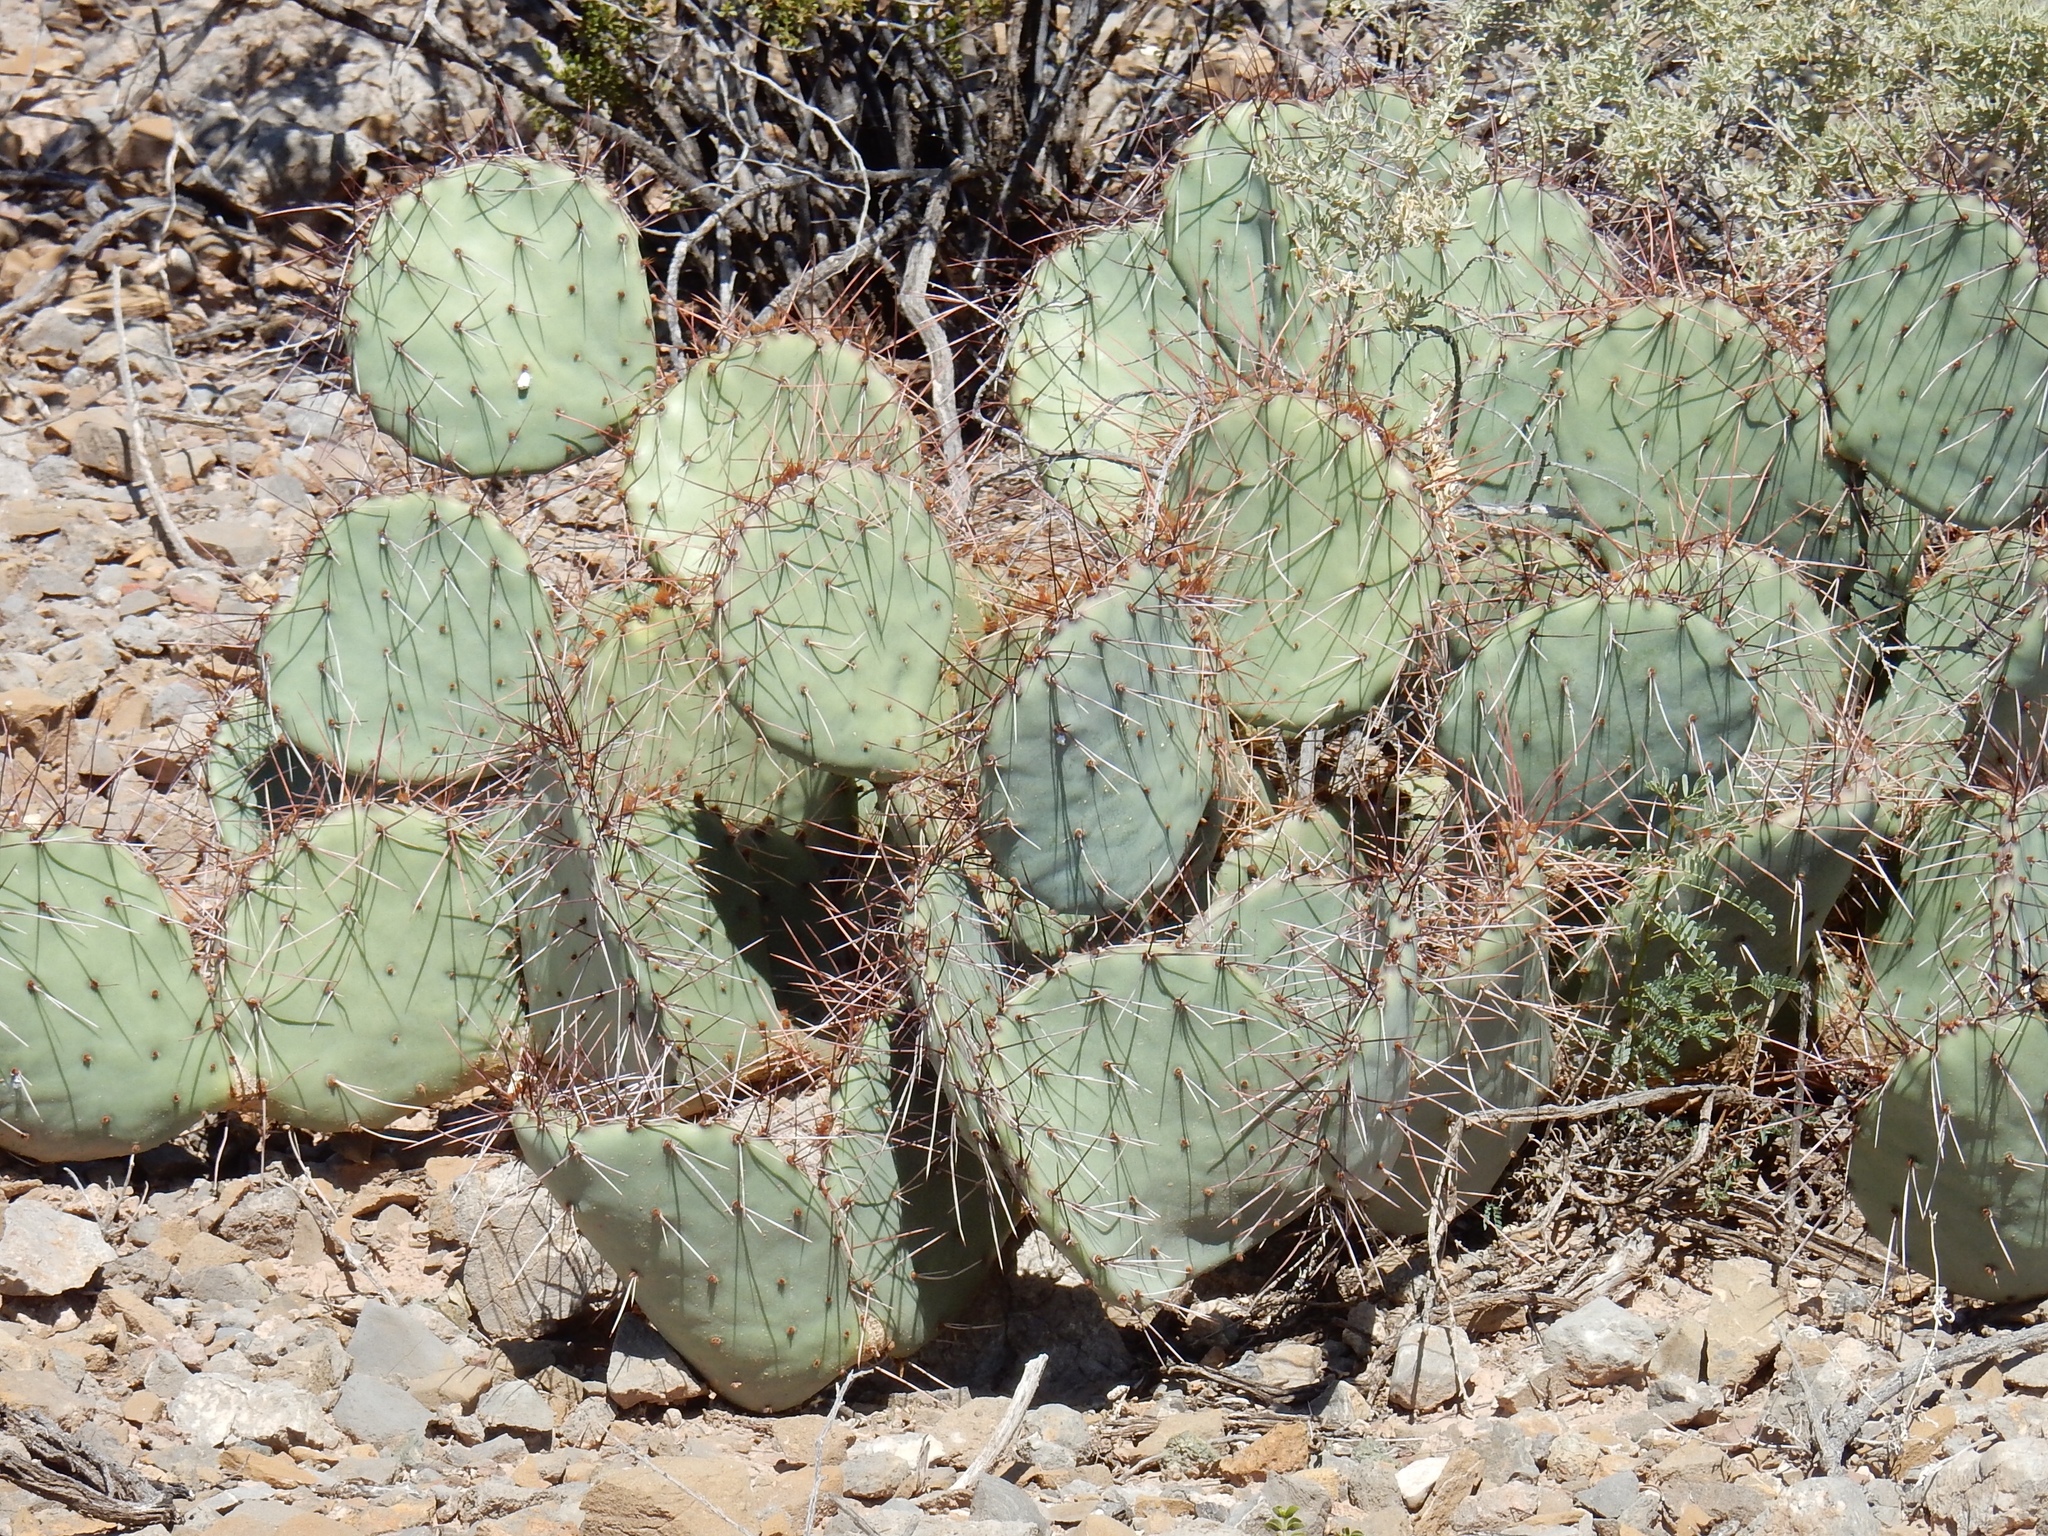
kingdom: Plantae
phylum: Tracheophyta
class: Magnoliopsida
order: Caryophyllales
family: Cactaceae
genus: Opuntia
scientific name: Opuntia engelmannii
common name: Cactus-apple
